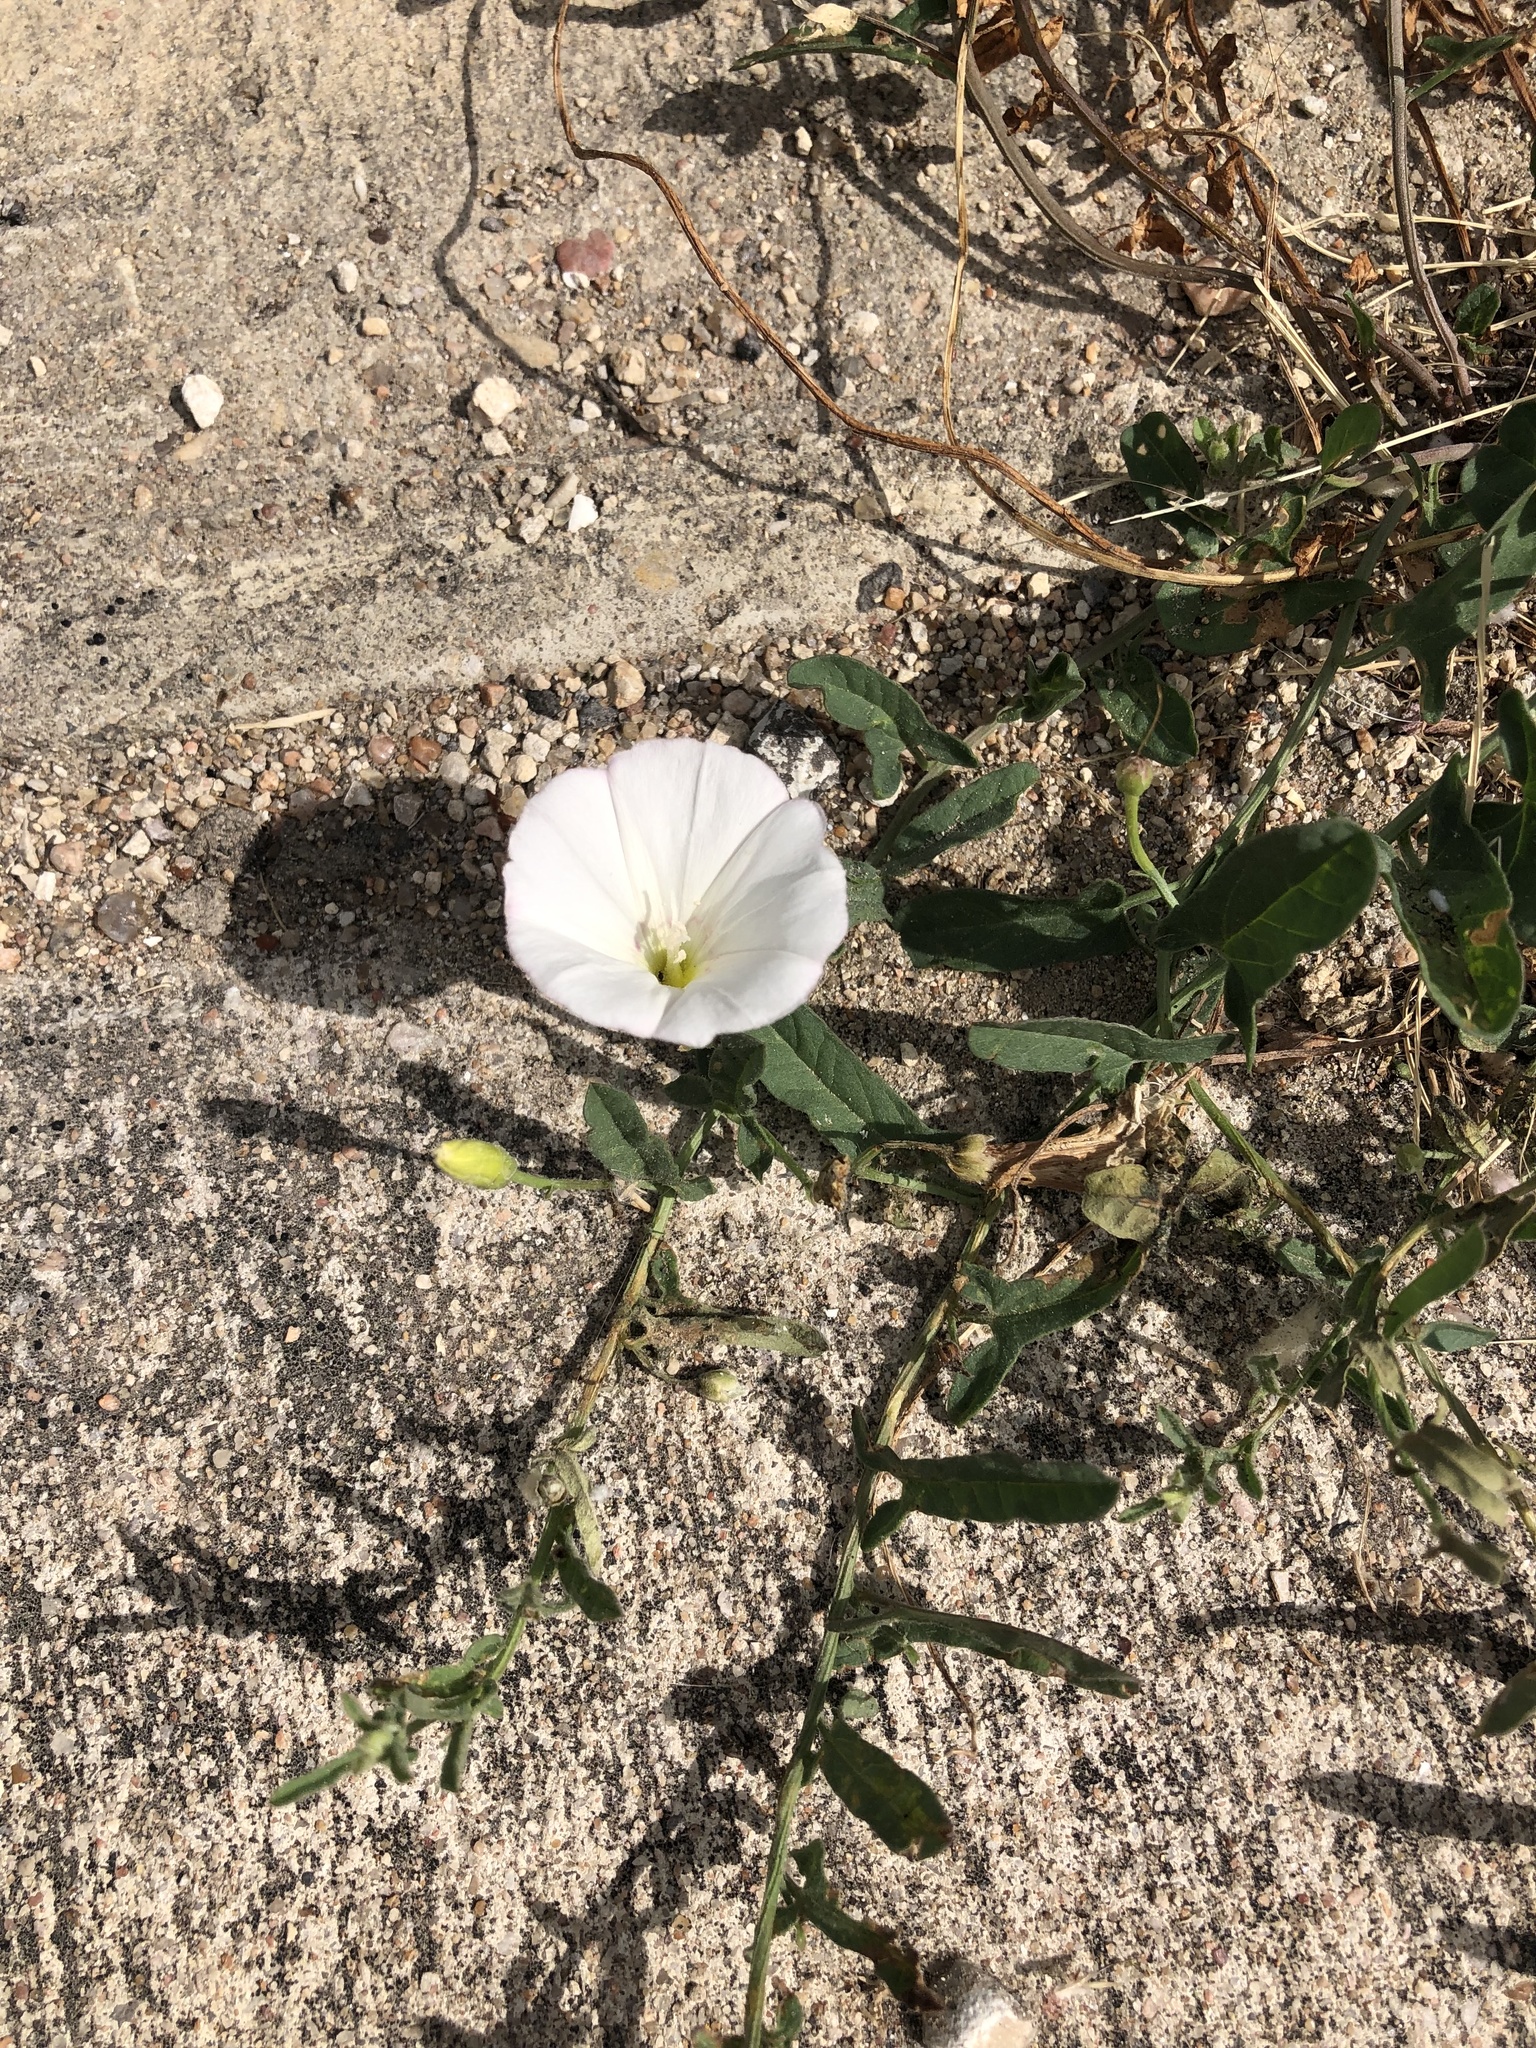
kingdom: Plantae
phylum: Tracheophyta
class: Magnoliopsida
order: Solanales
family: Convolvulaceae
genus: Convolvulus
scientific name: Convolvulus arvensis
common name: Field bindweed
